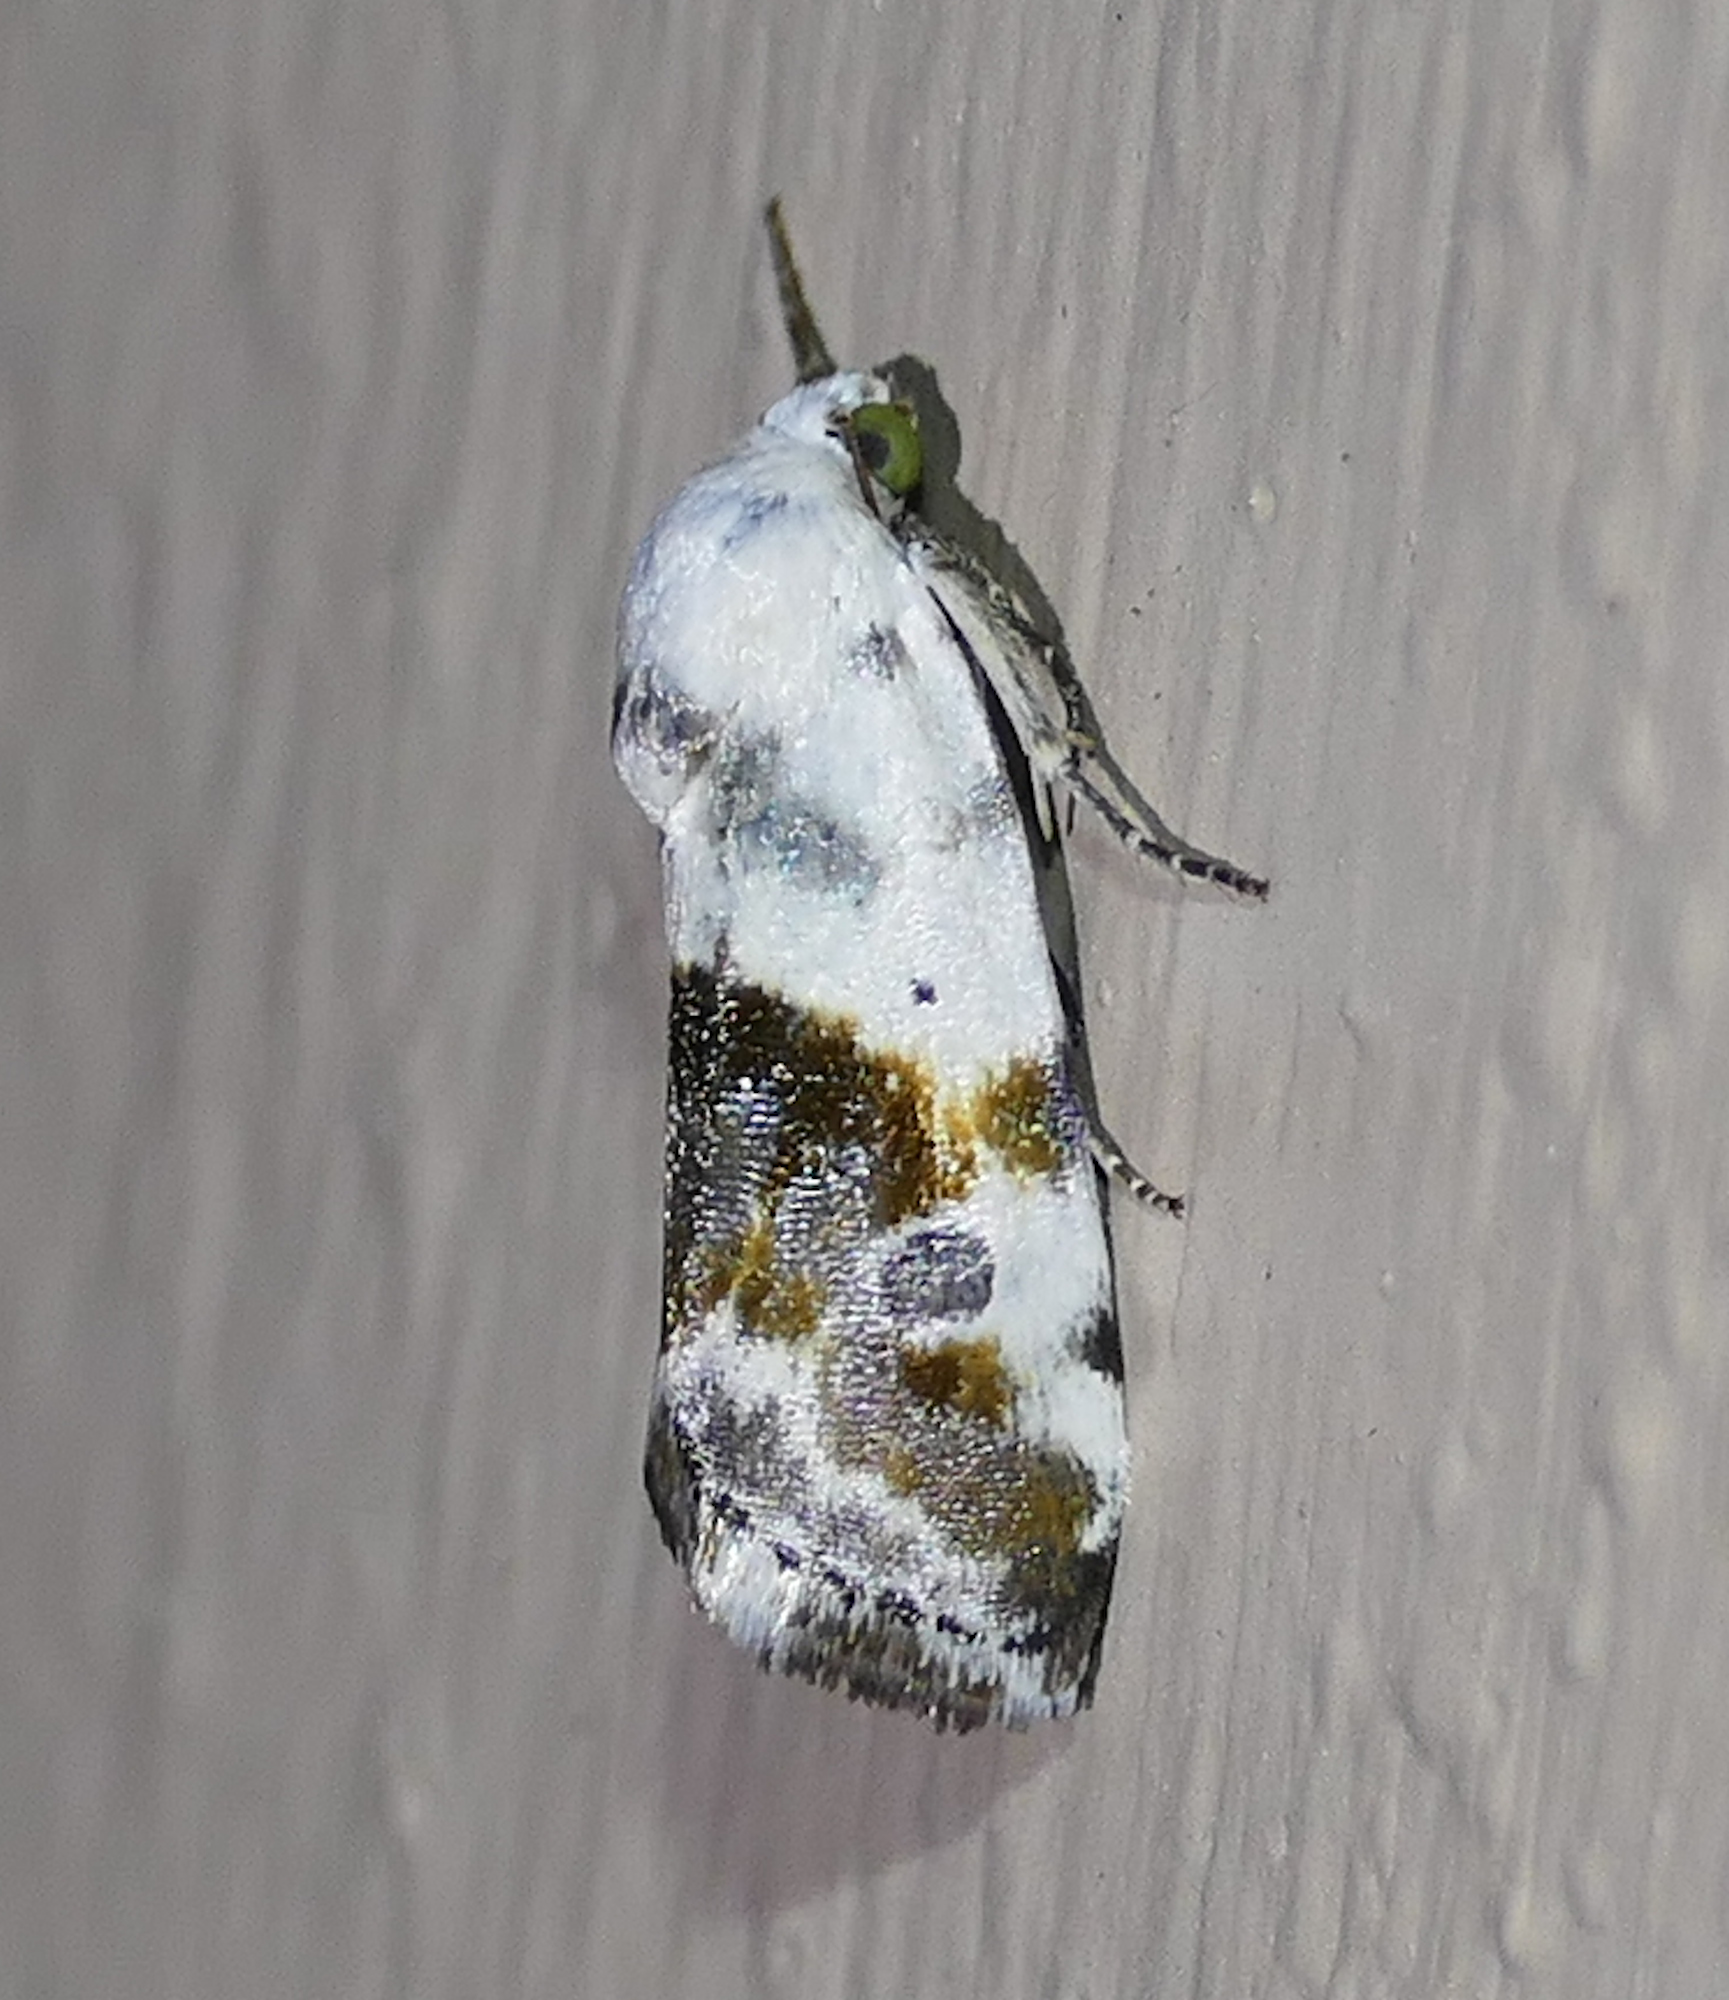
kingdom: Animalia
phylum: Arthropoda
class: Insecta
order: Lepidoptera
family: Noctuidae
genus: Acontia
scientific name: Acontia aprica
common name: Nun
